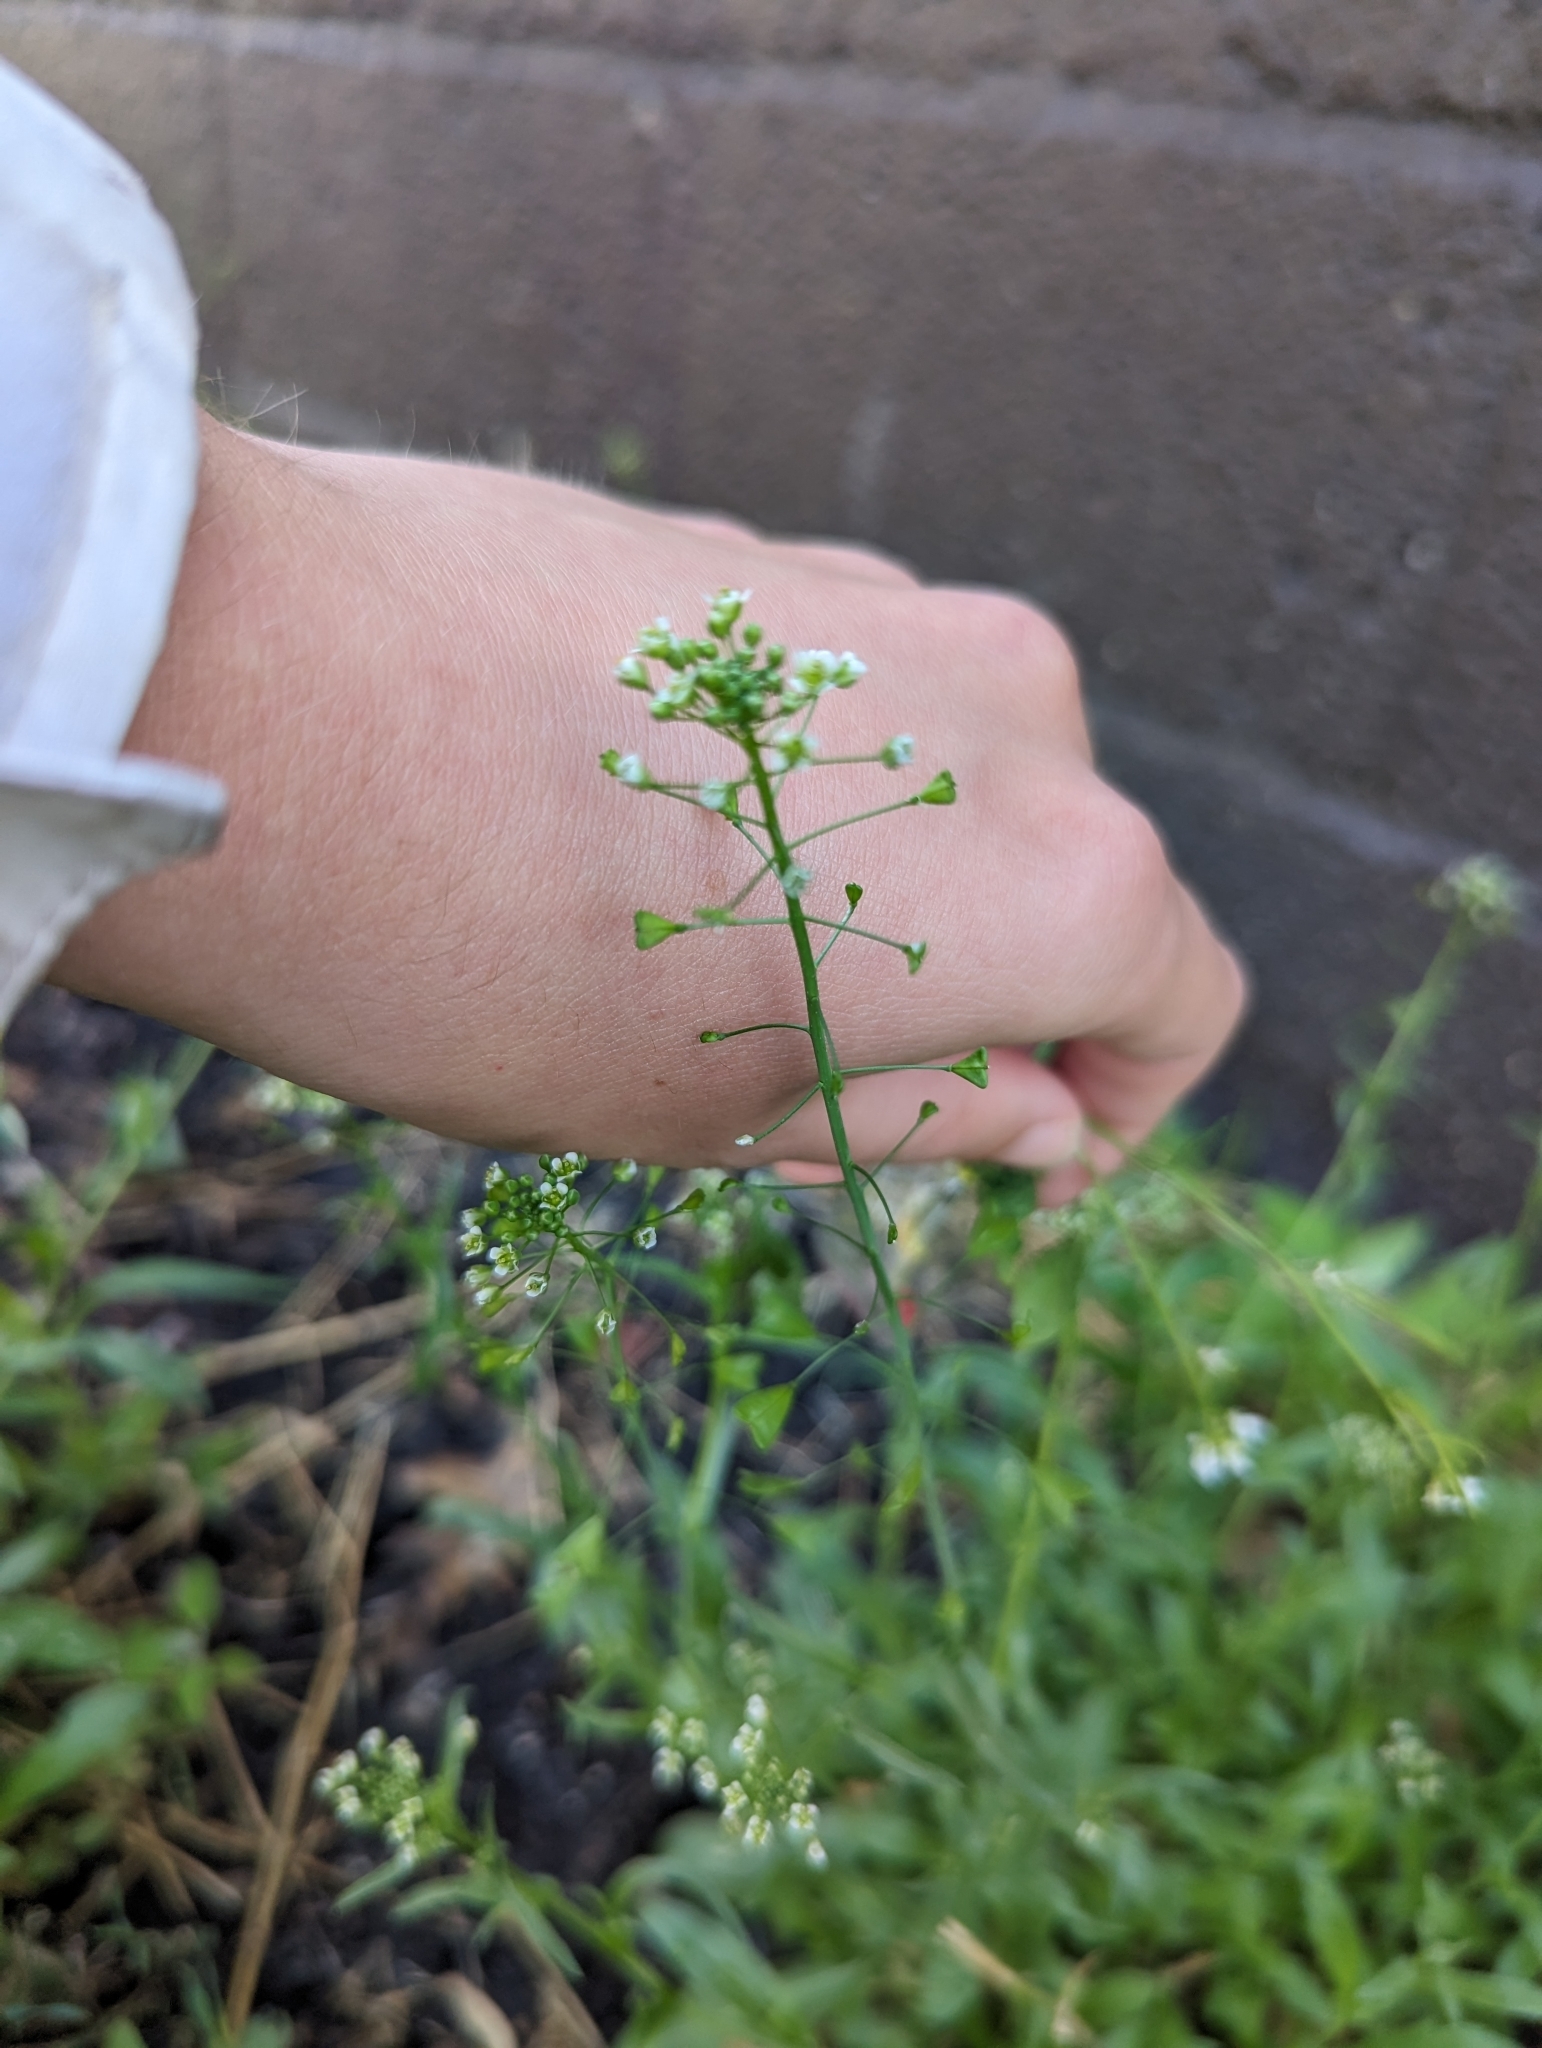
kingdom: Plantae
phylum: Tracheophyta
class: Magnoliopsida
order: Brassicales
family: Brassicaceae
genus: Capsella
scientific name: Capsella bursa-pastoris
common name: Shepherd's purse
